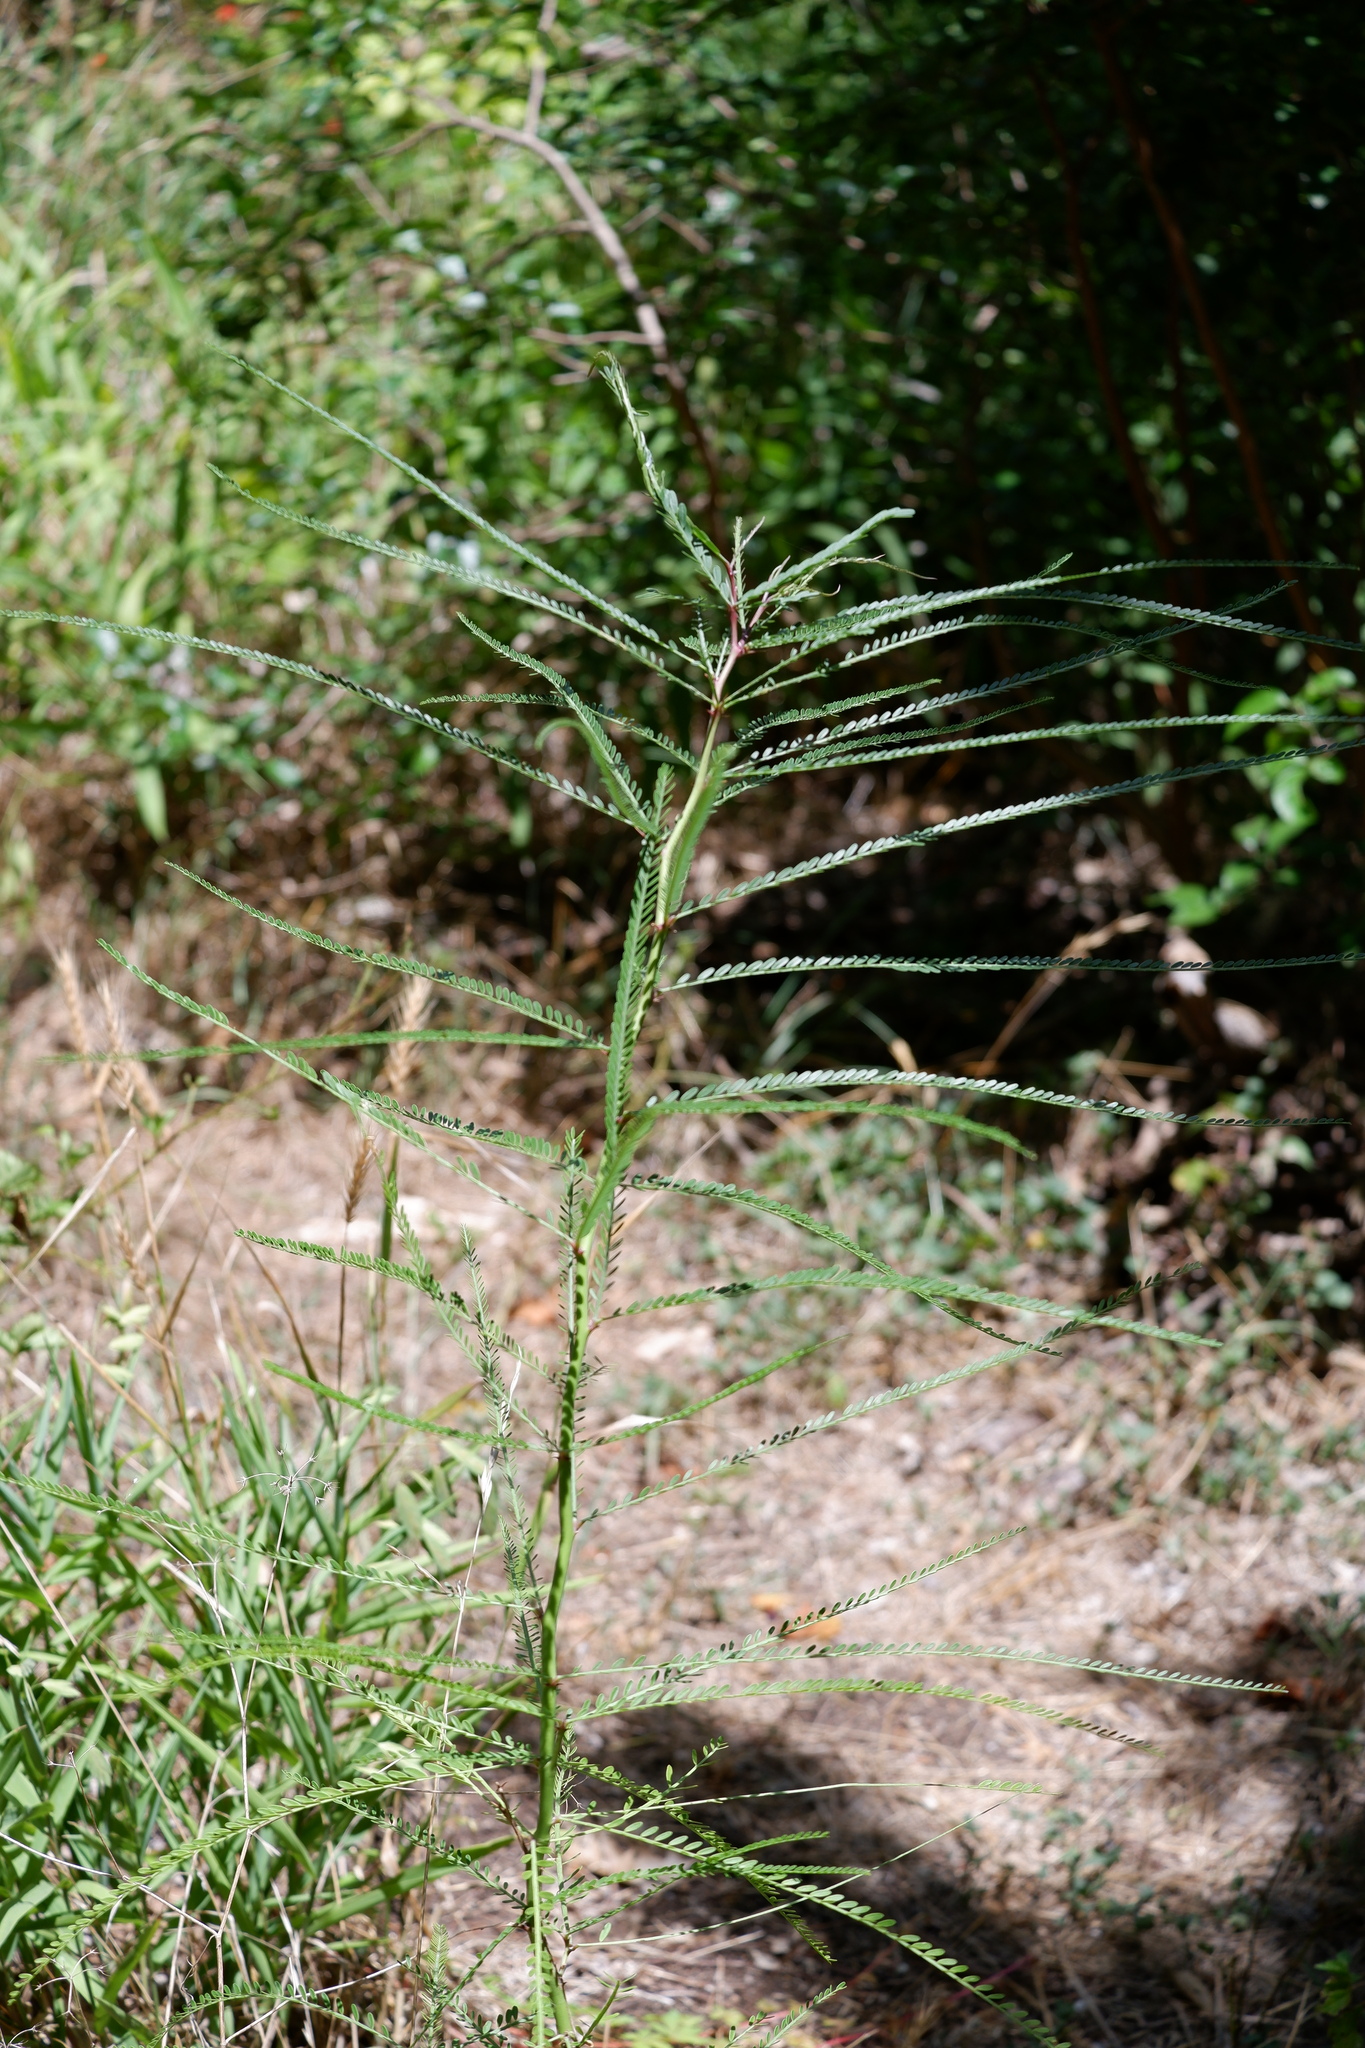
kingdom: Plantae
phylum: Tracheophyta
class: Magnoliopsida
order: Fabales
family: Fabaceae
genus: Parkinsonia
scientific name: Parkinsonia aculeata
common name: Jerusalem thorn
